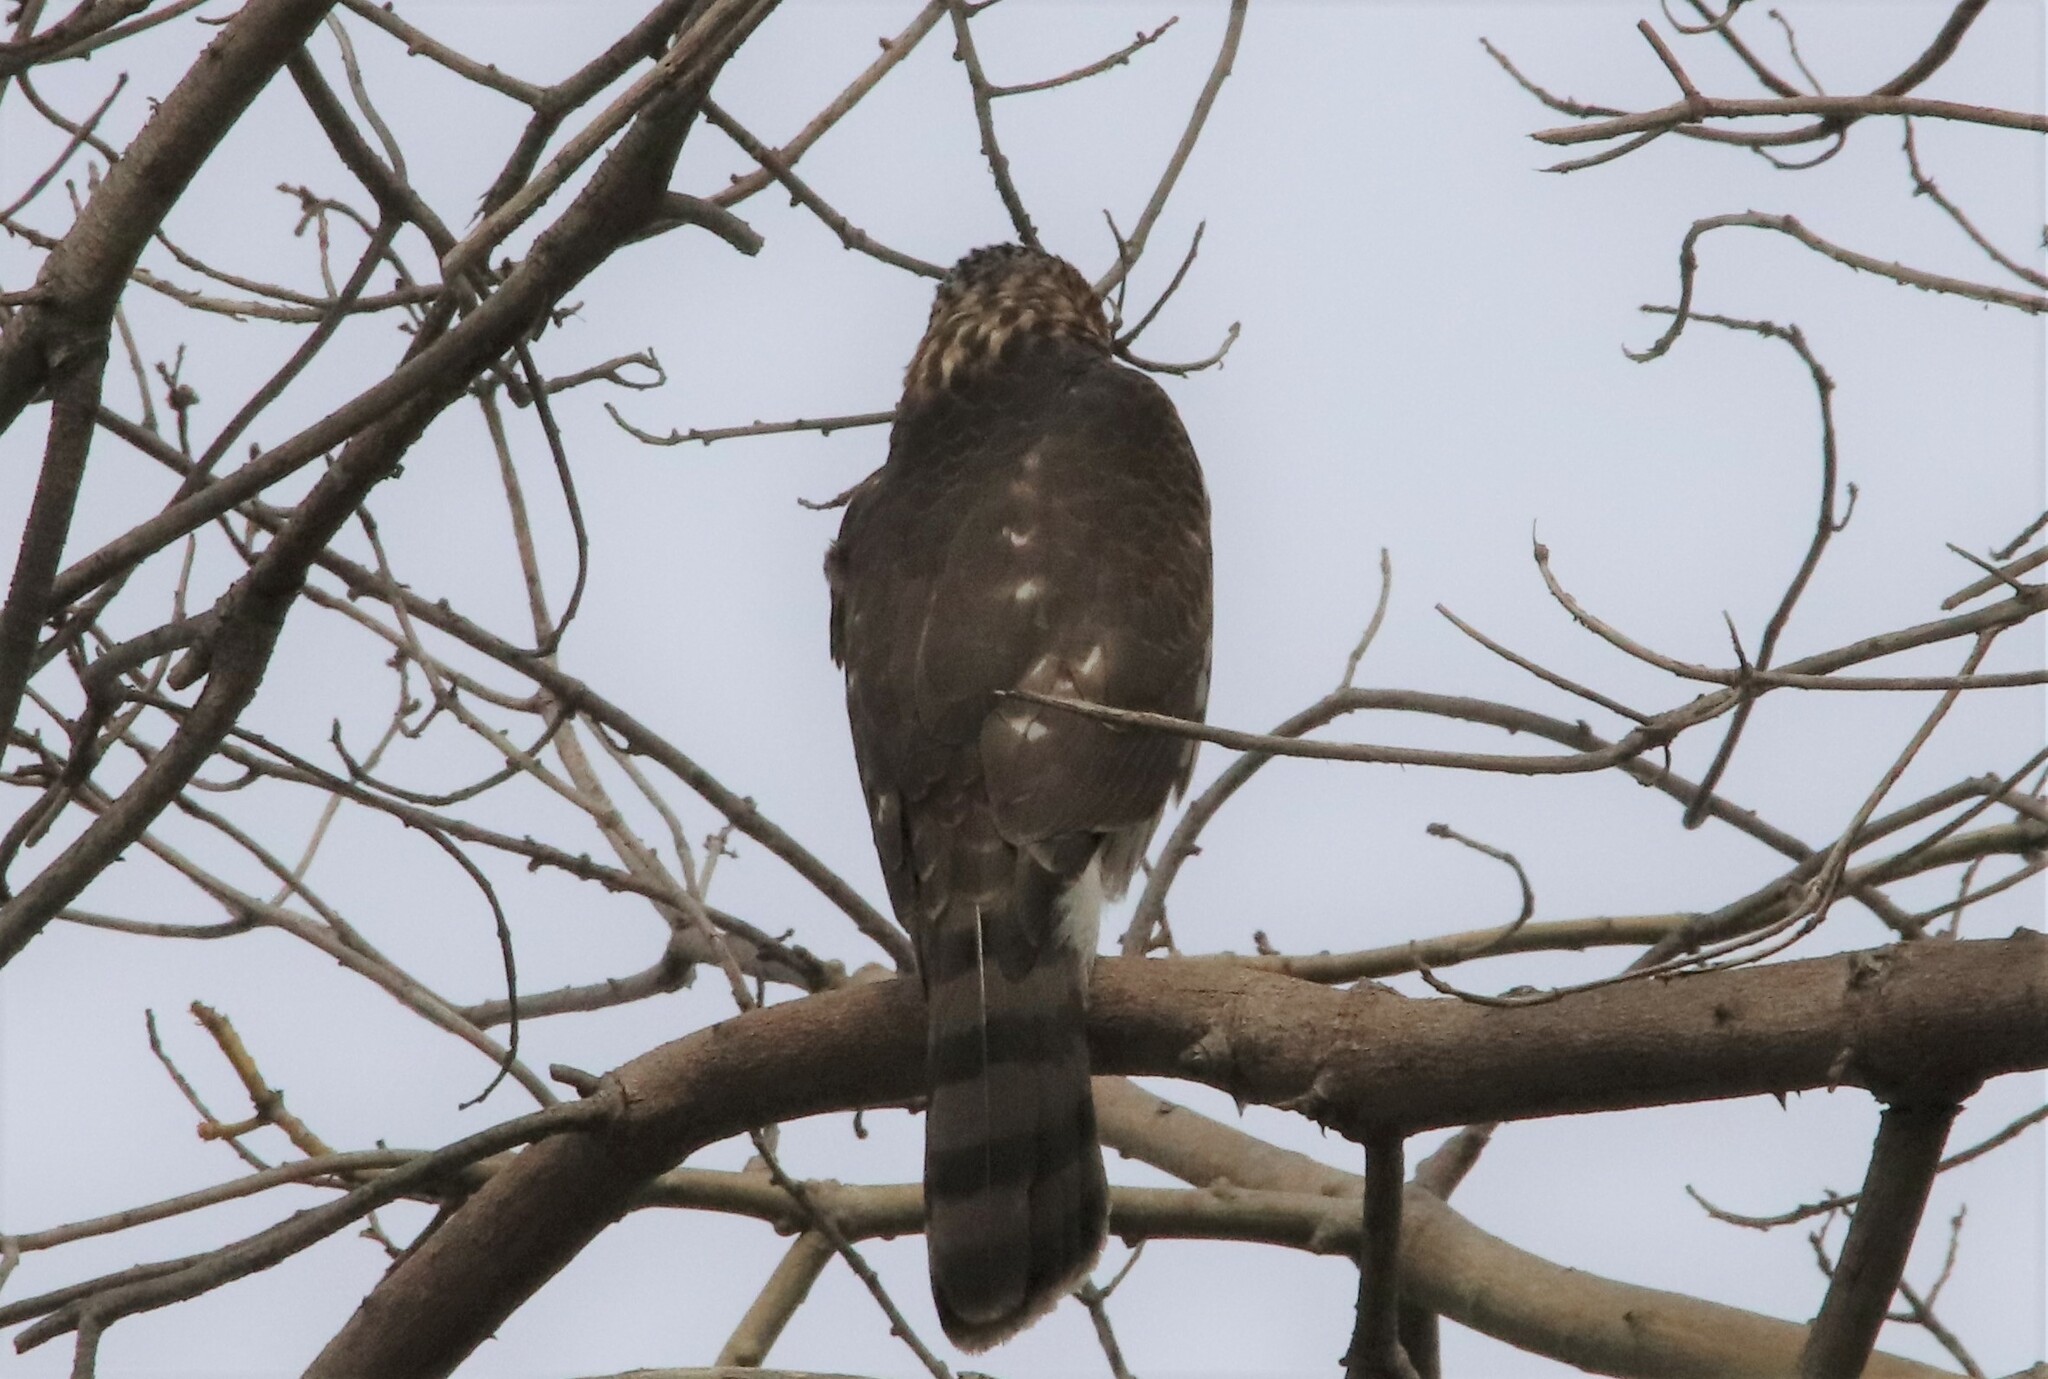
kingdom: Animalia
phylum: Chordata
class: Aves
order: Accipitriformes
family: Accipitridae
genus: Accipiter
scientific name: Accipiter cooperii
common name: Cooper's hawk
